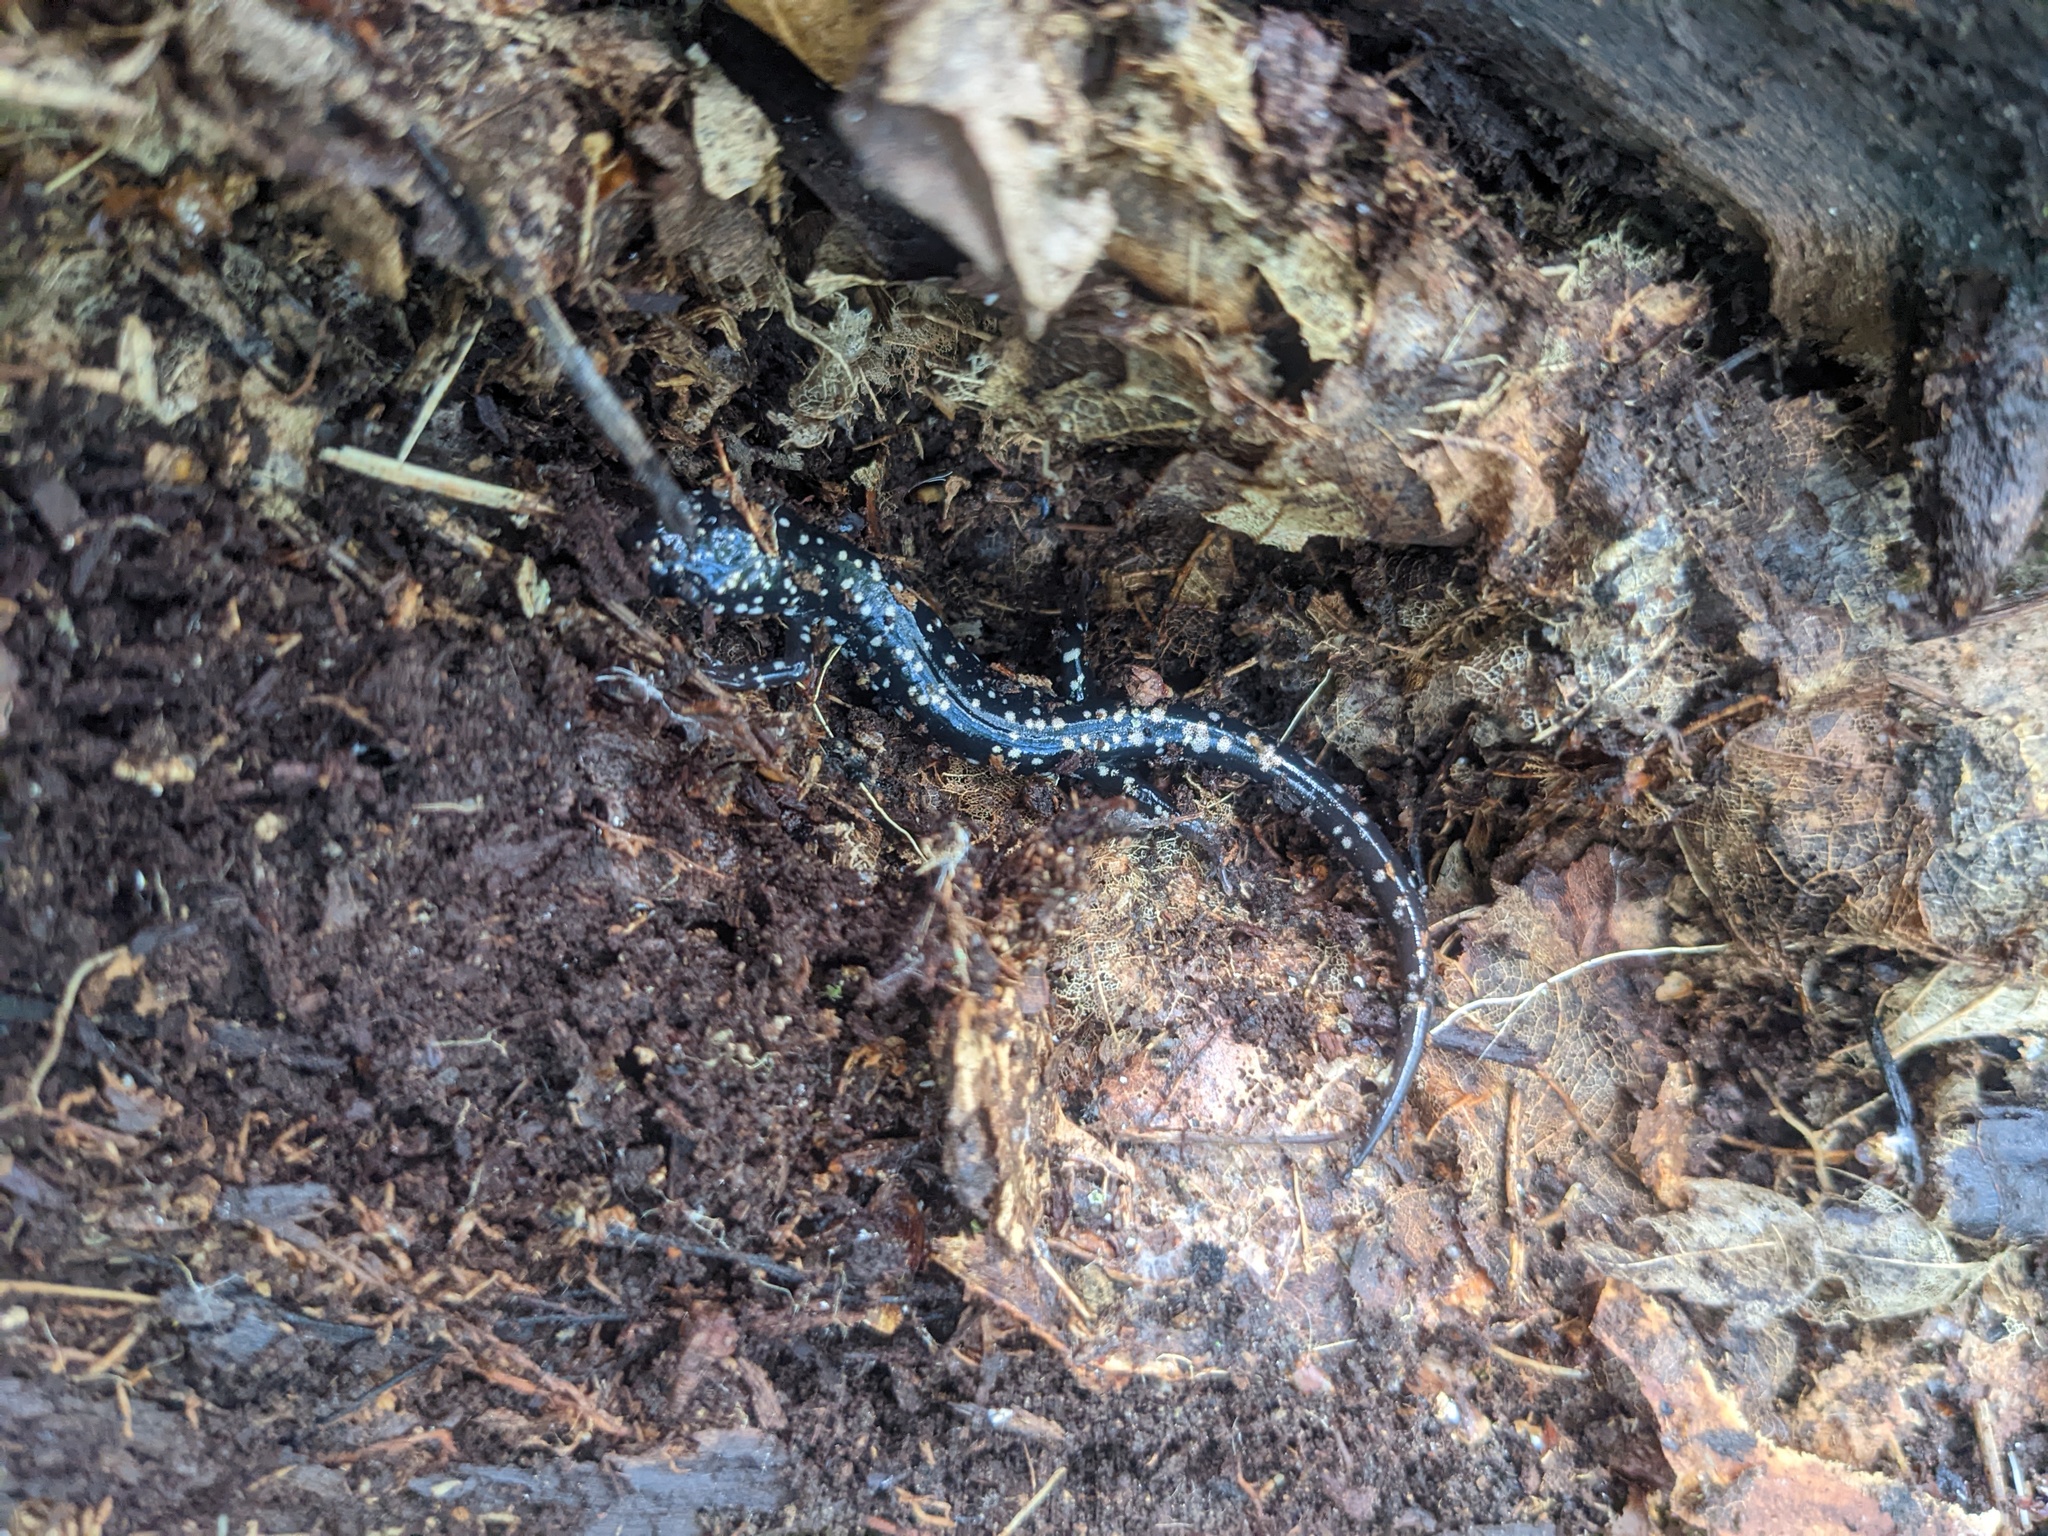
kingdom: Animalia
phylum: Chordata
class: Amphibia
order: Caudata
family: Plethodontidae
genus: Plethodon
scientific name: Plethodon glutinosus
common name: Northern slimy salamander
